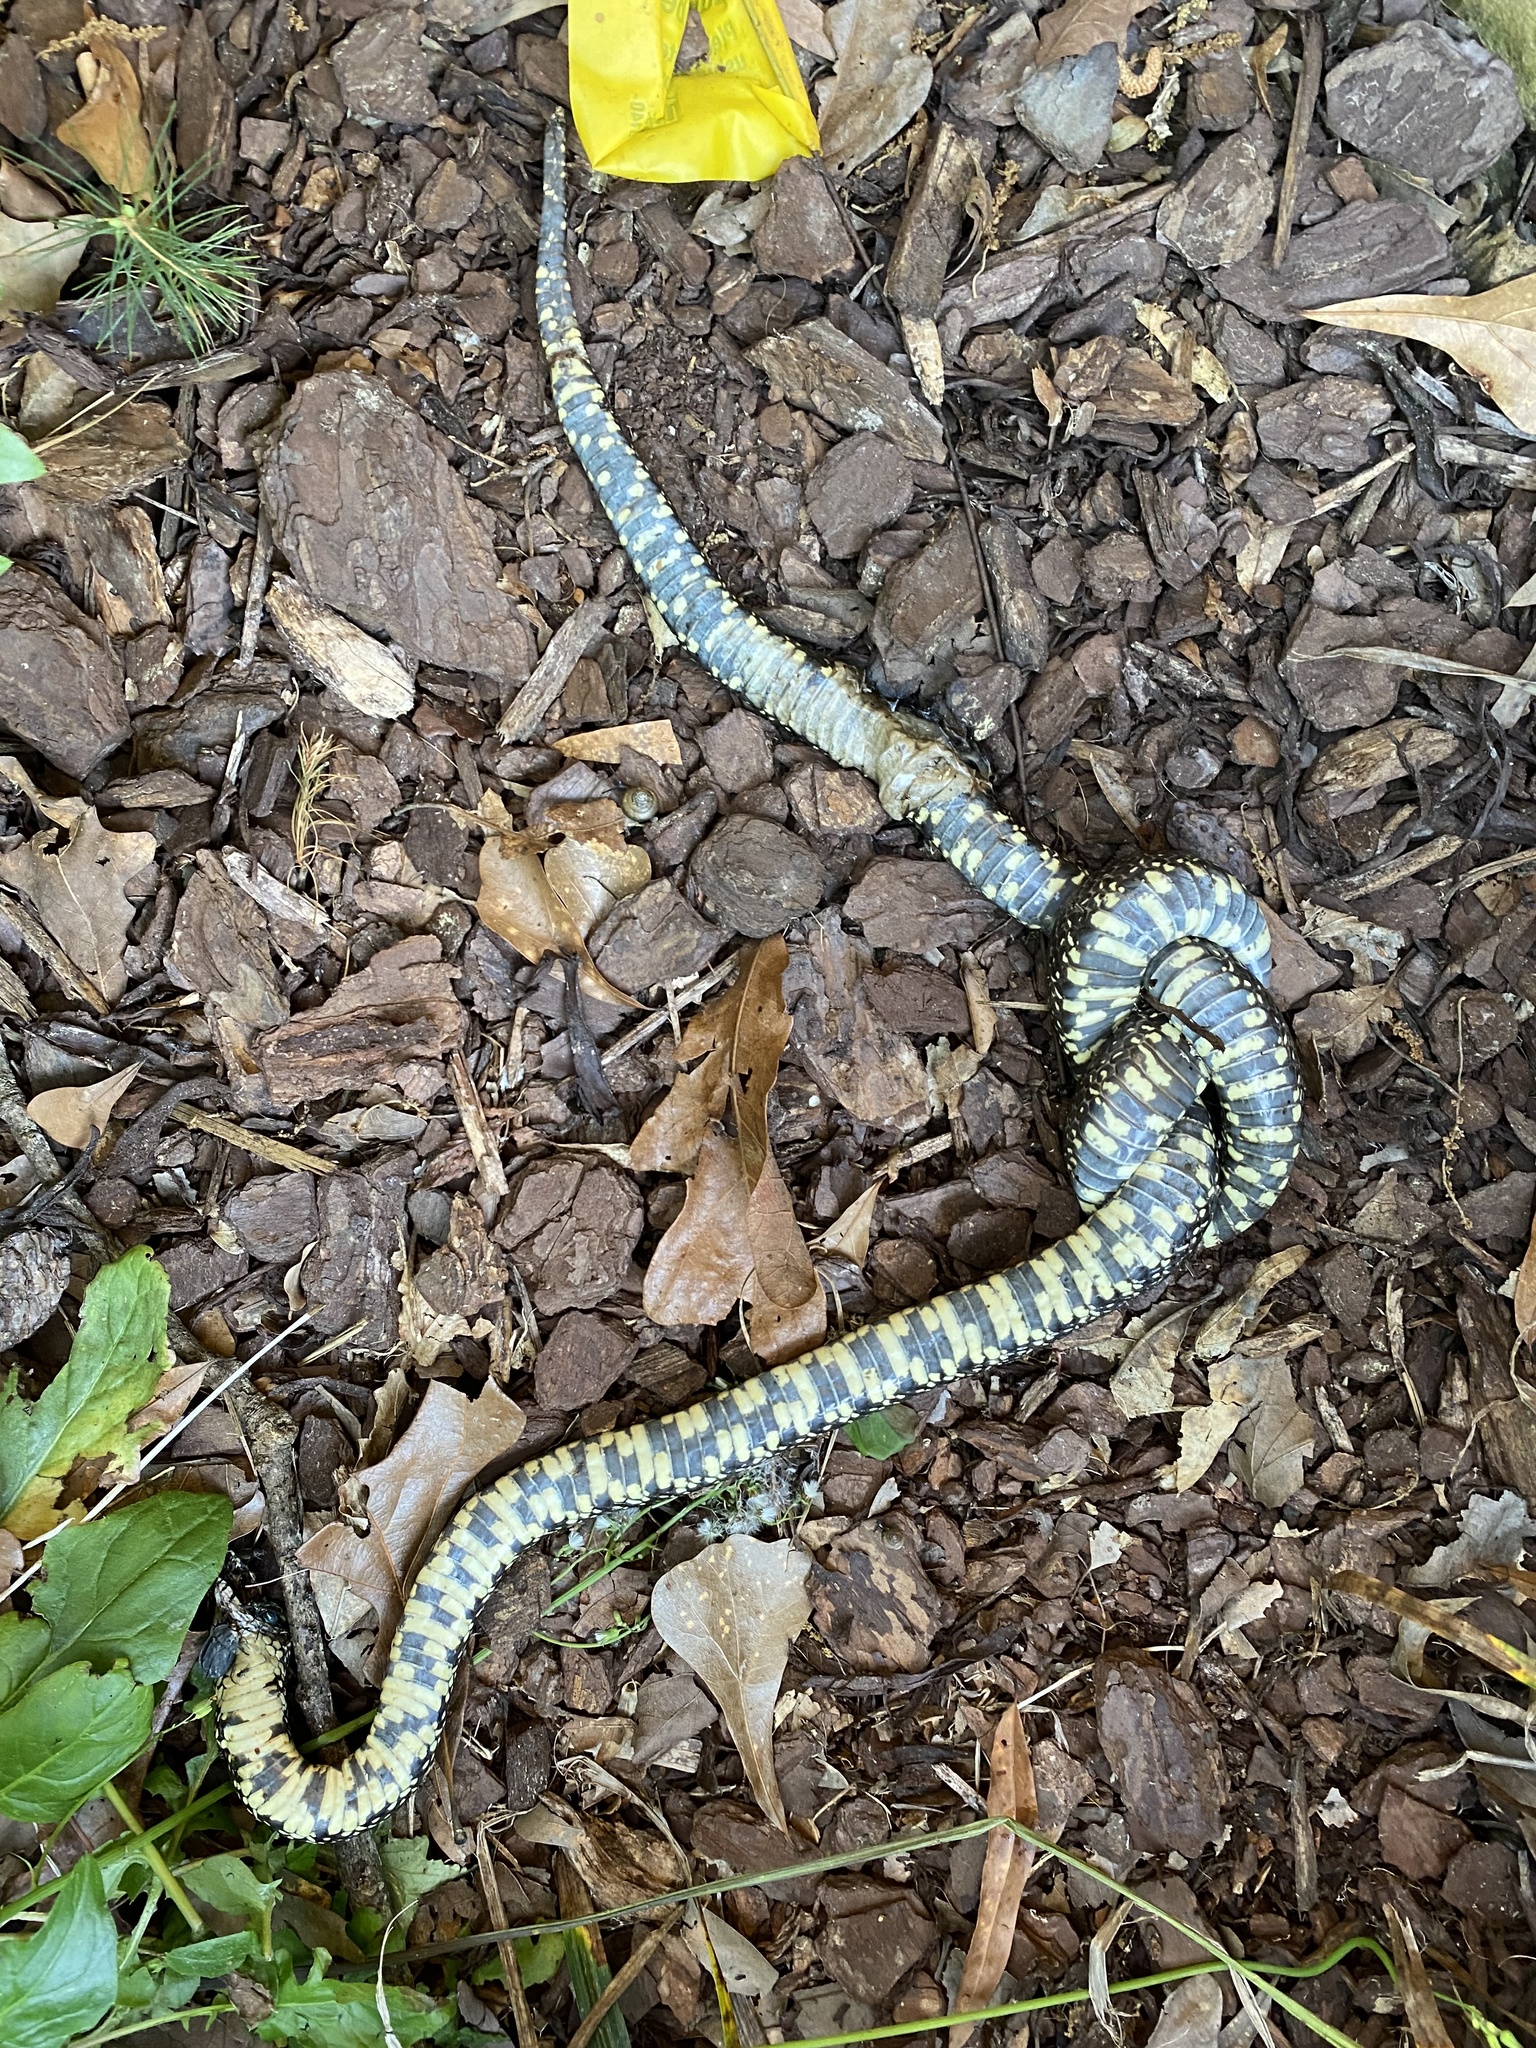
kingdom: Animalia
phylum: Chordata
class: Squamata
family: Colubridae
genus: Lampropeltis
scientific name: Lampropeltis nigra
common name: Black kingsnake
